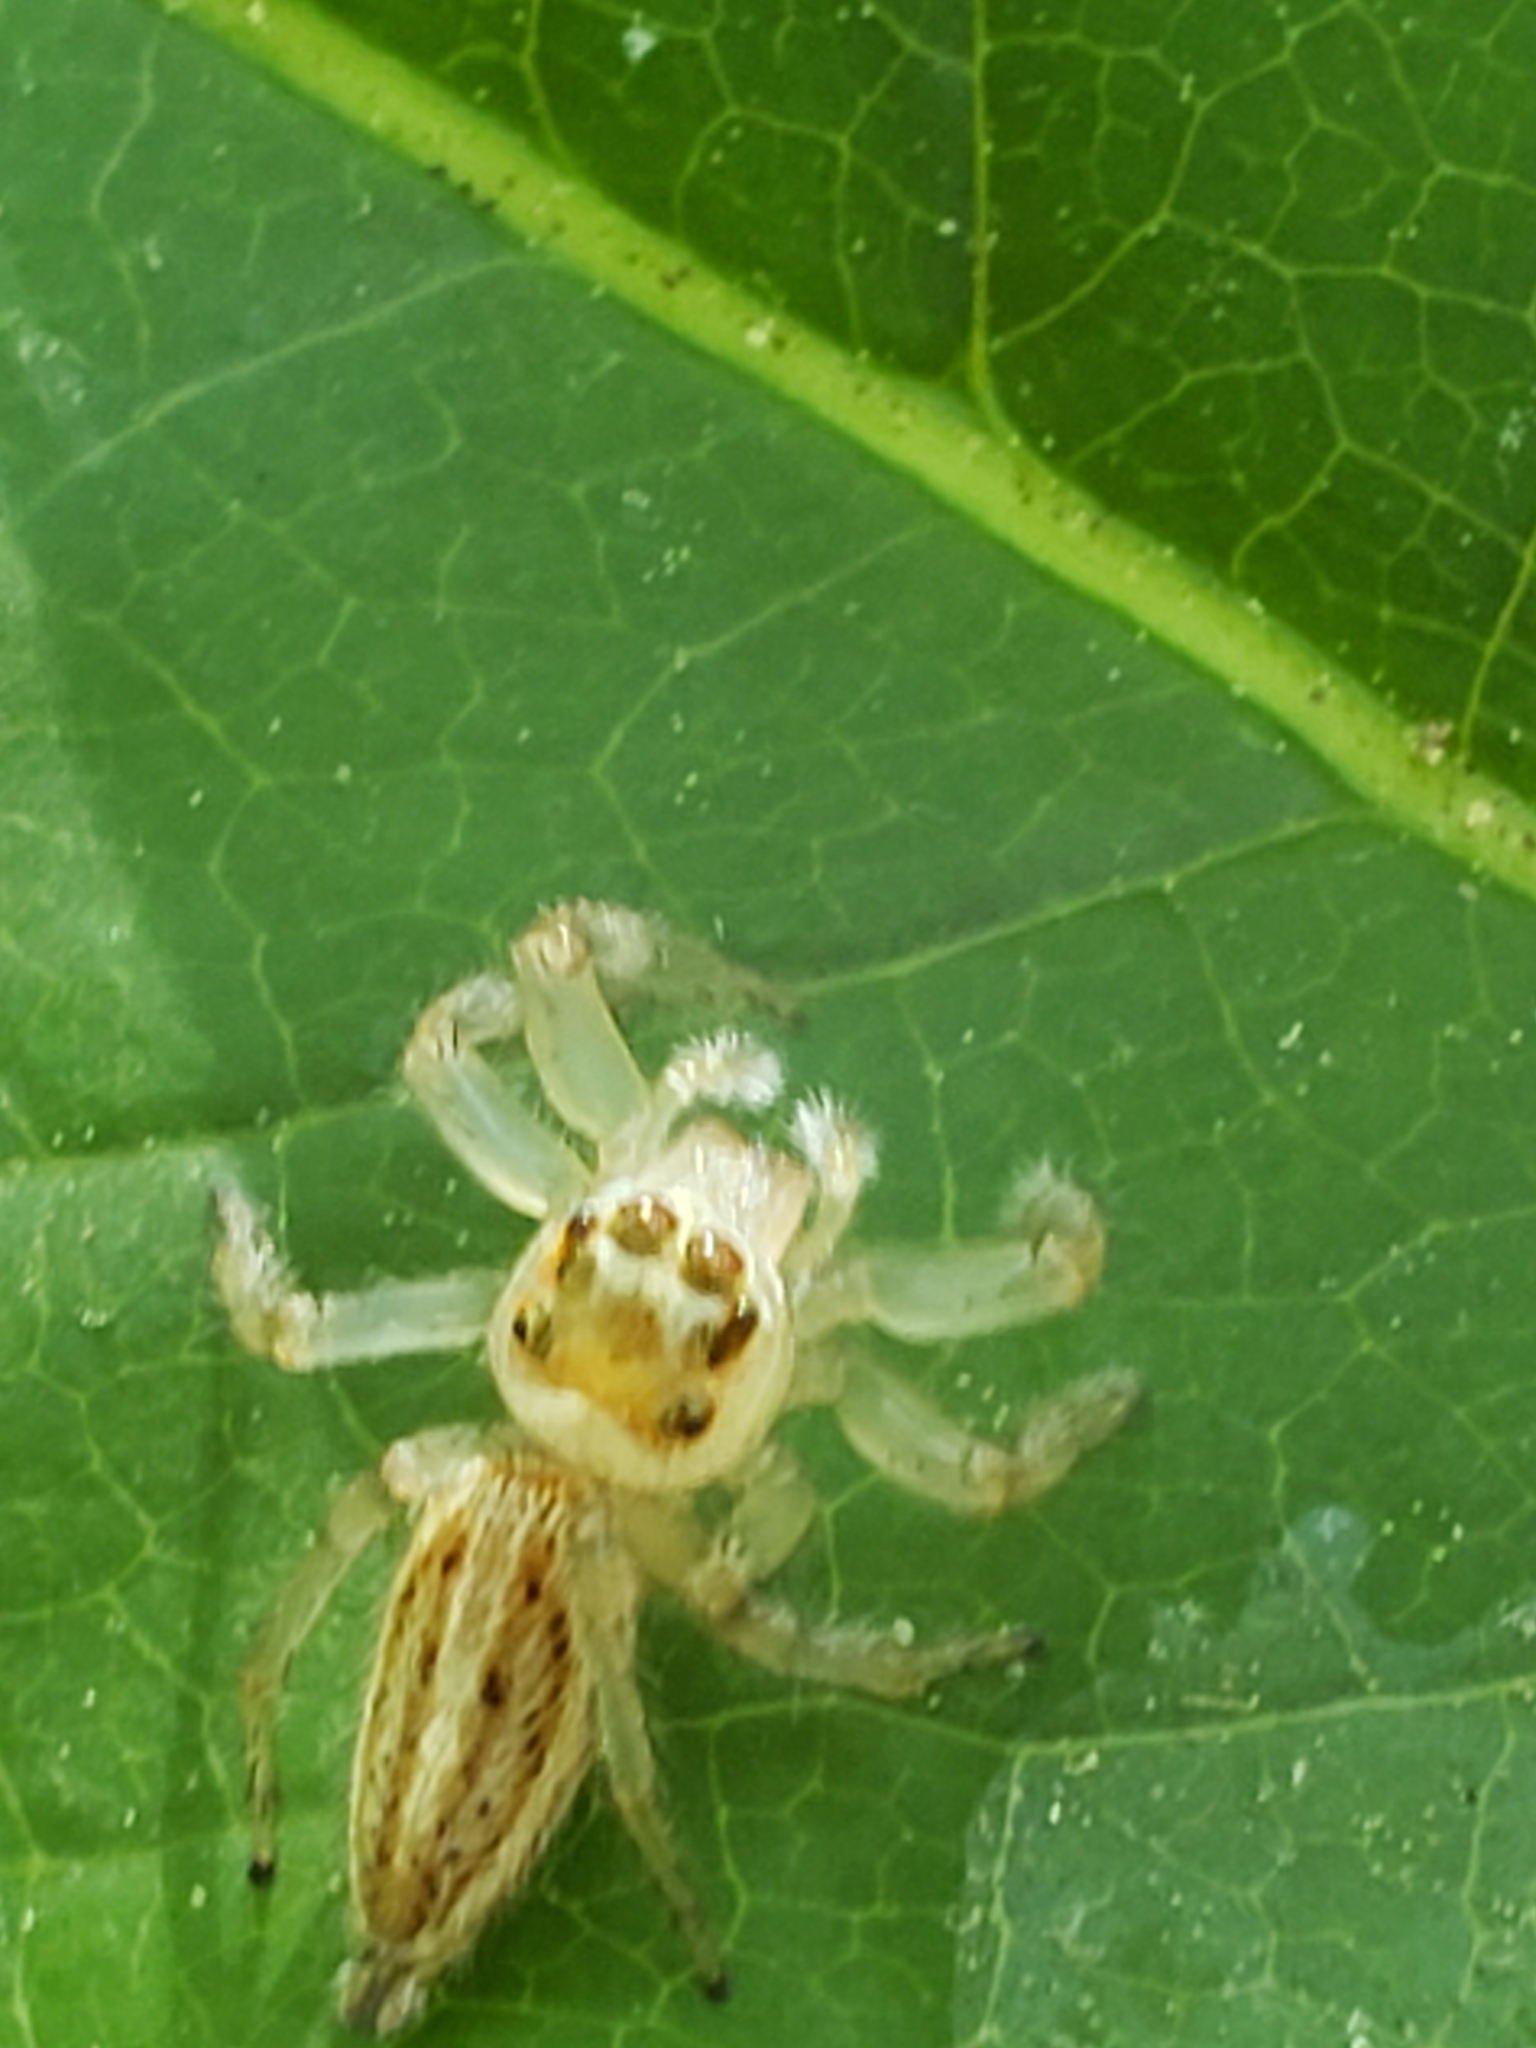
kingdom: Animalia
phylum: Arthropoda
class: Arachnida
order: Araneae
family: Salticidae
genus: Colonus
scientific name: Colonus sylvanus
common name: Jumping spiders
